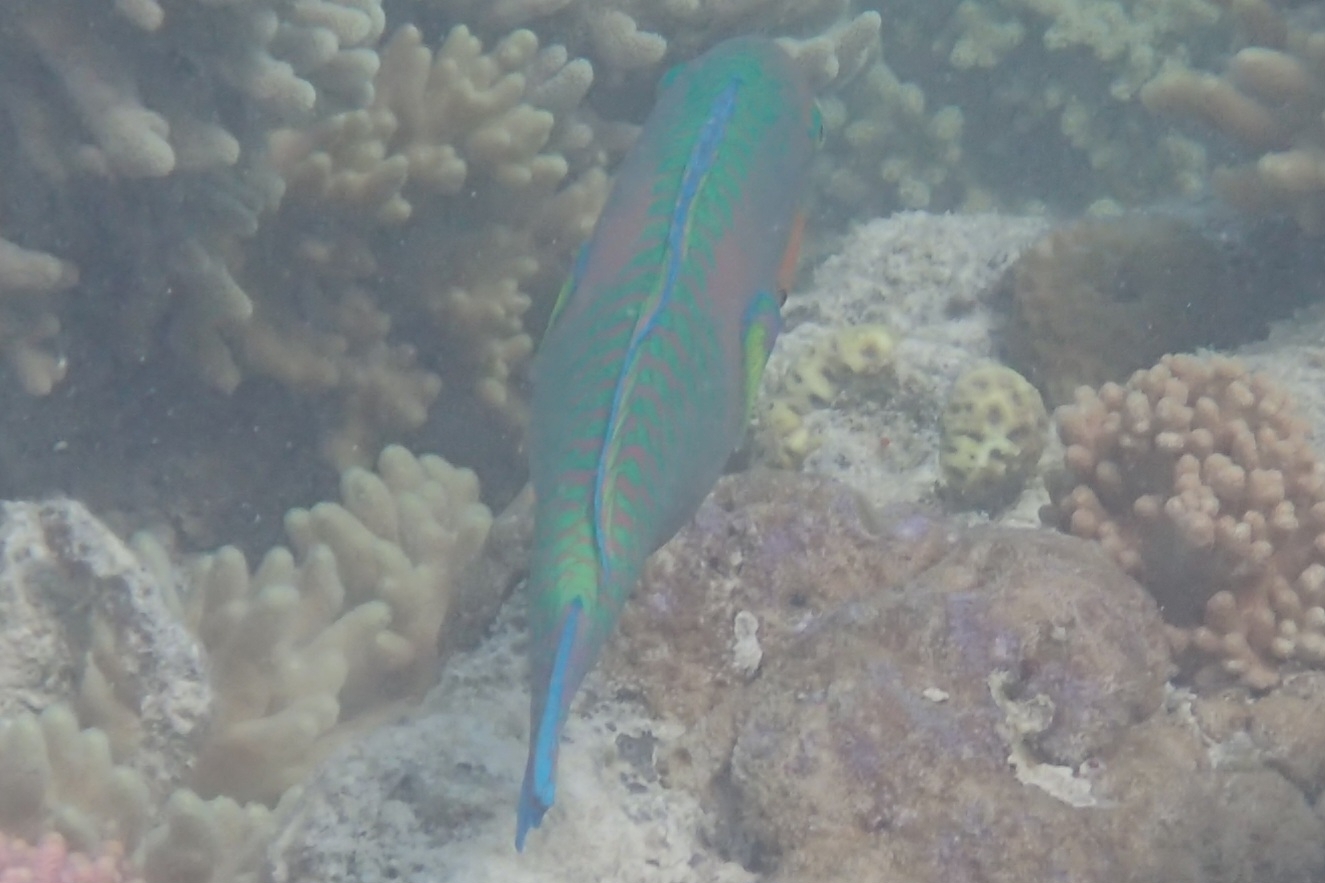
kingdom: Animalia
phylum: Chordata
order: Perciformes
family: Scaridae
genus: Scarus
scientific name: Scarus rivulatus
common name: Surf parrotfish
